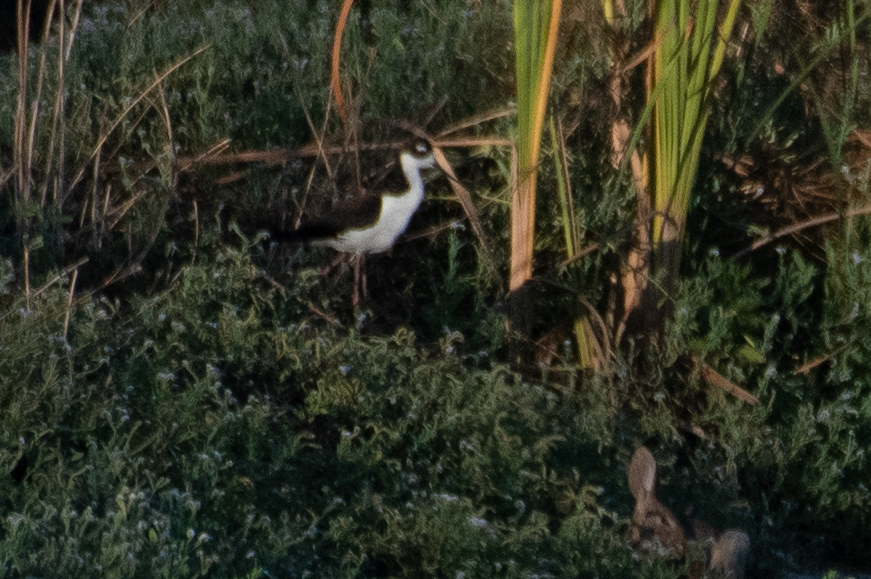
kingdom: Animalia
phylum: Chordata
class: Aves
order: Charadriiformes
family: Recurvirostridae
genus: Himantopus
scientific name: Himantopus mexicanus
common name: Black-necked stilt
